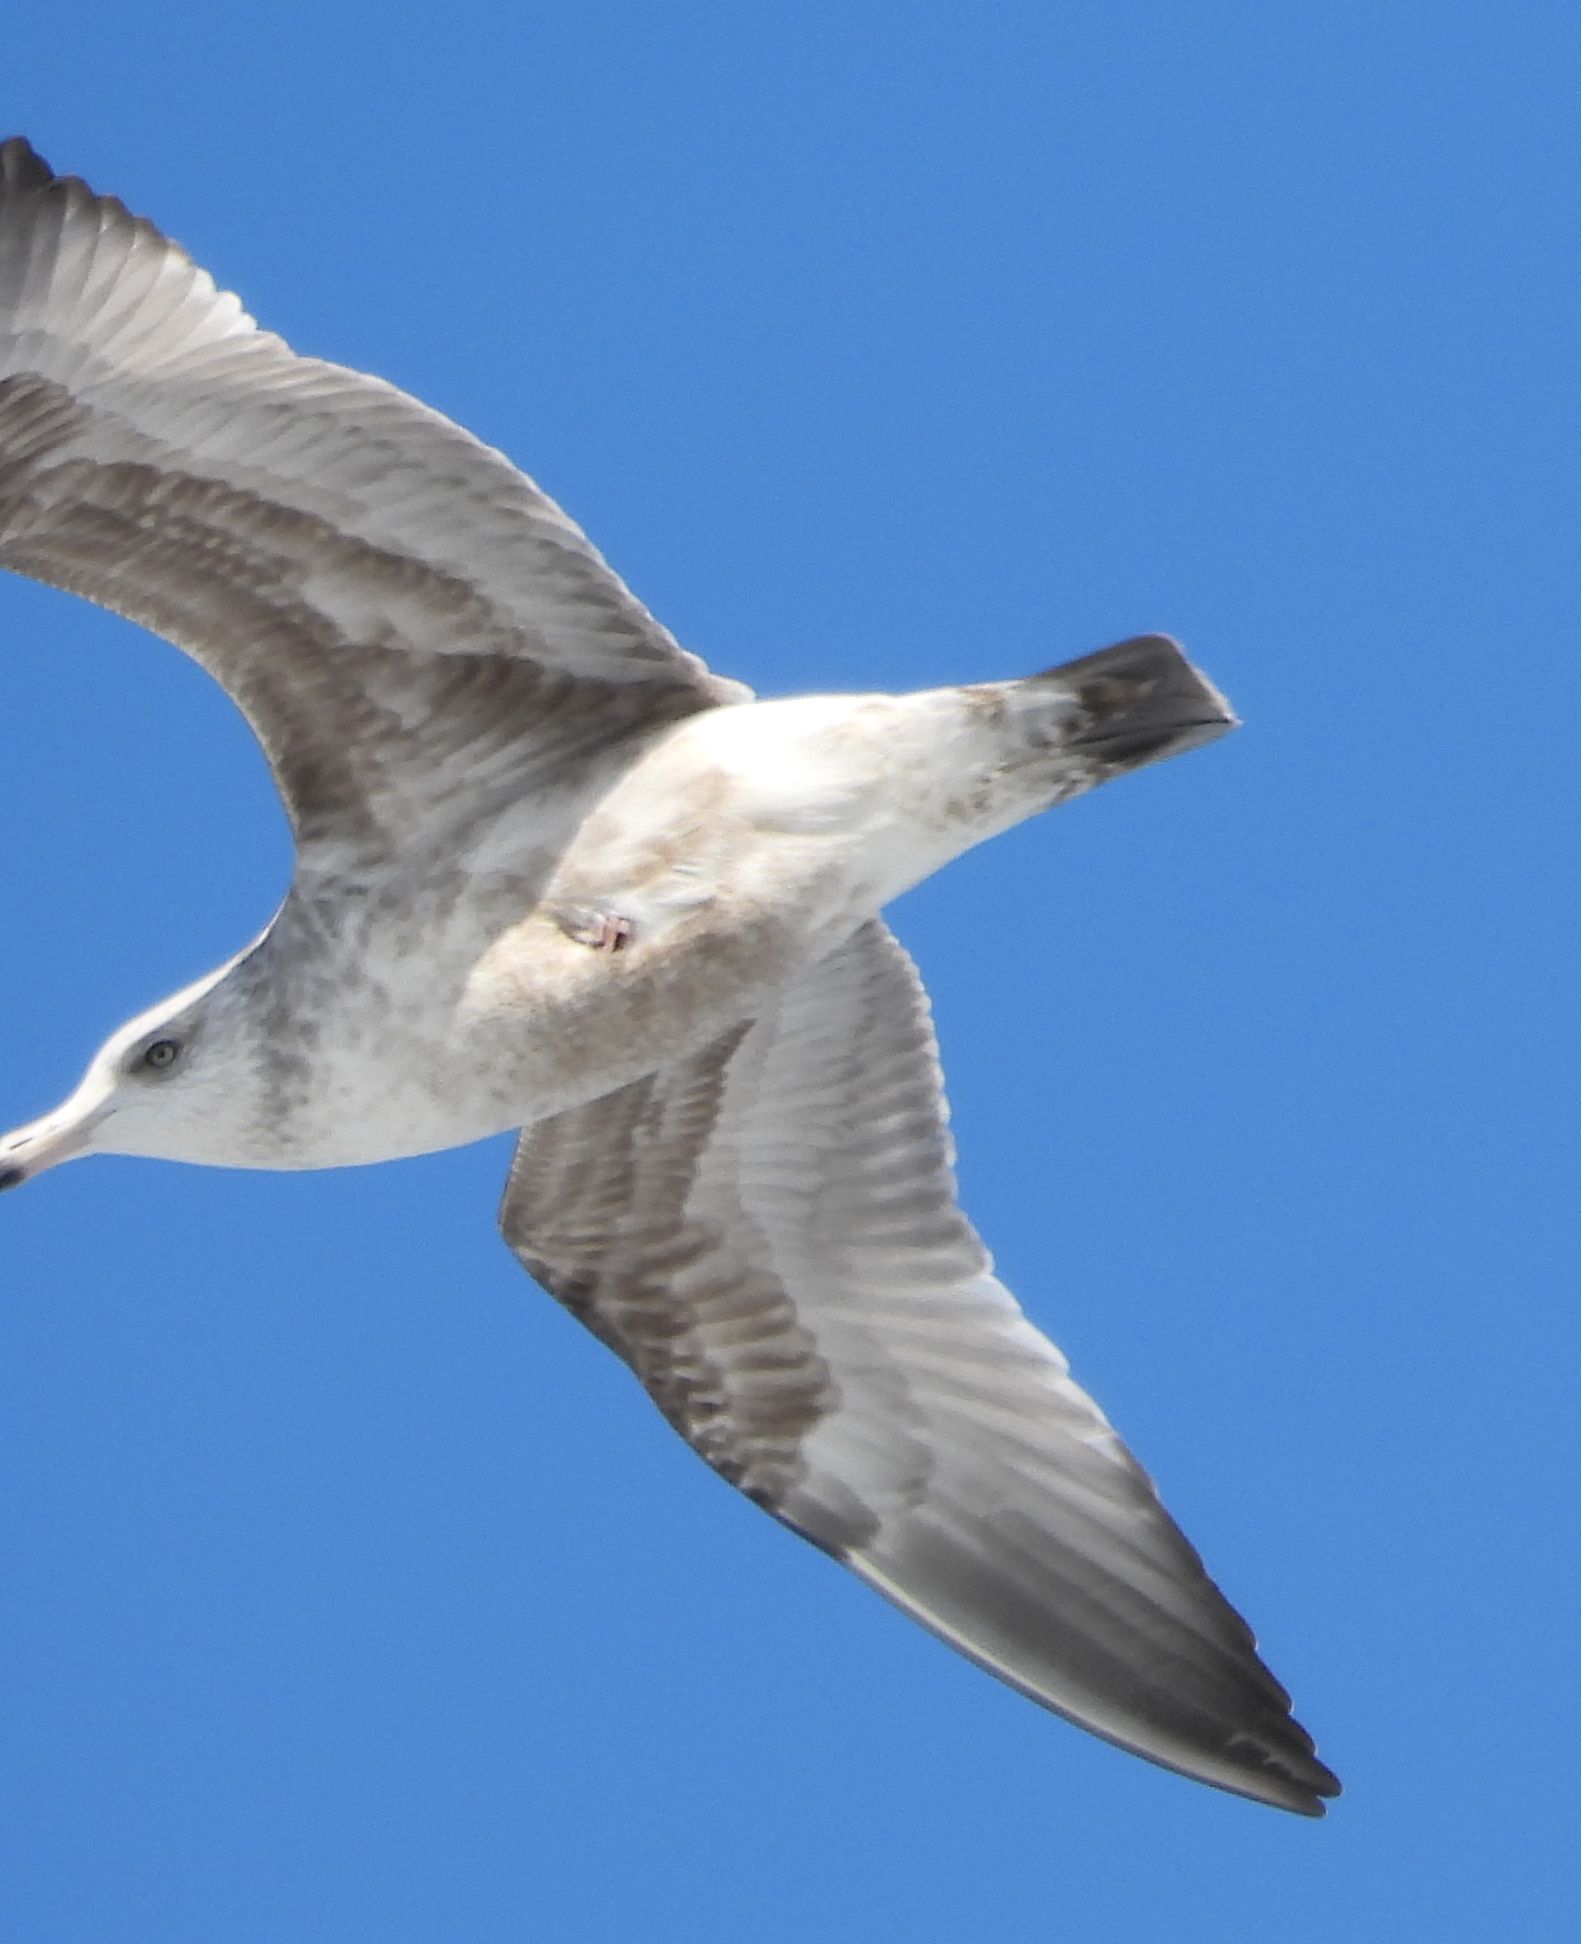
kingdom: Animalia
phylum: Chordata
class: Aves
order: Charadriiformes
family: Laridae
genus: Larus
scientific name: Larus argentatus
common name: Herring gull
